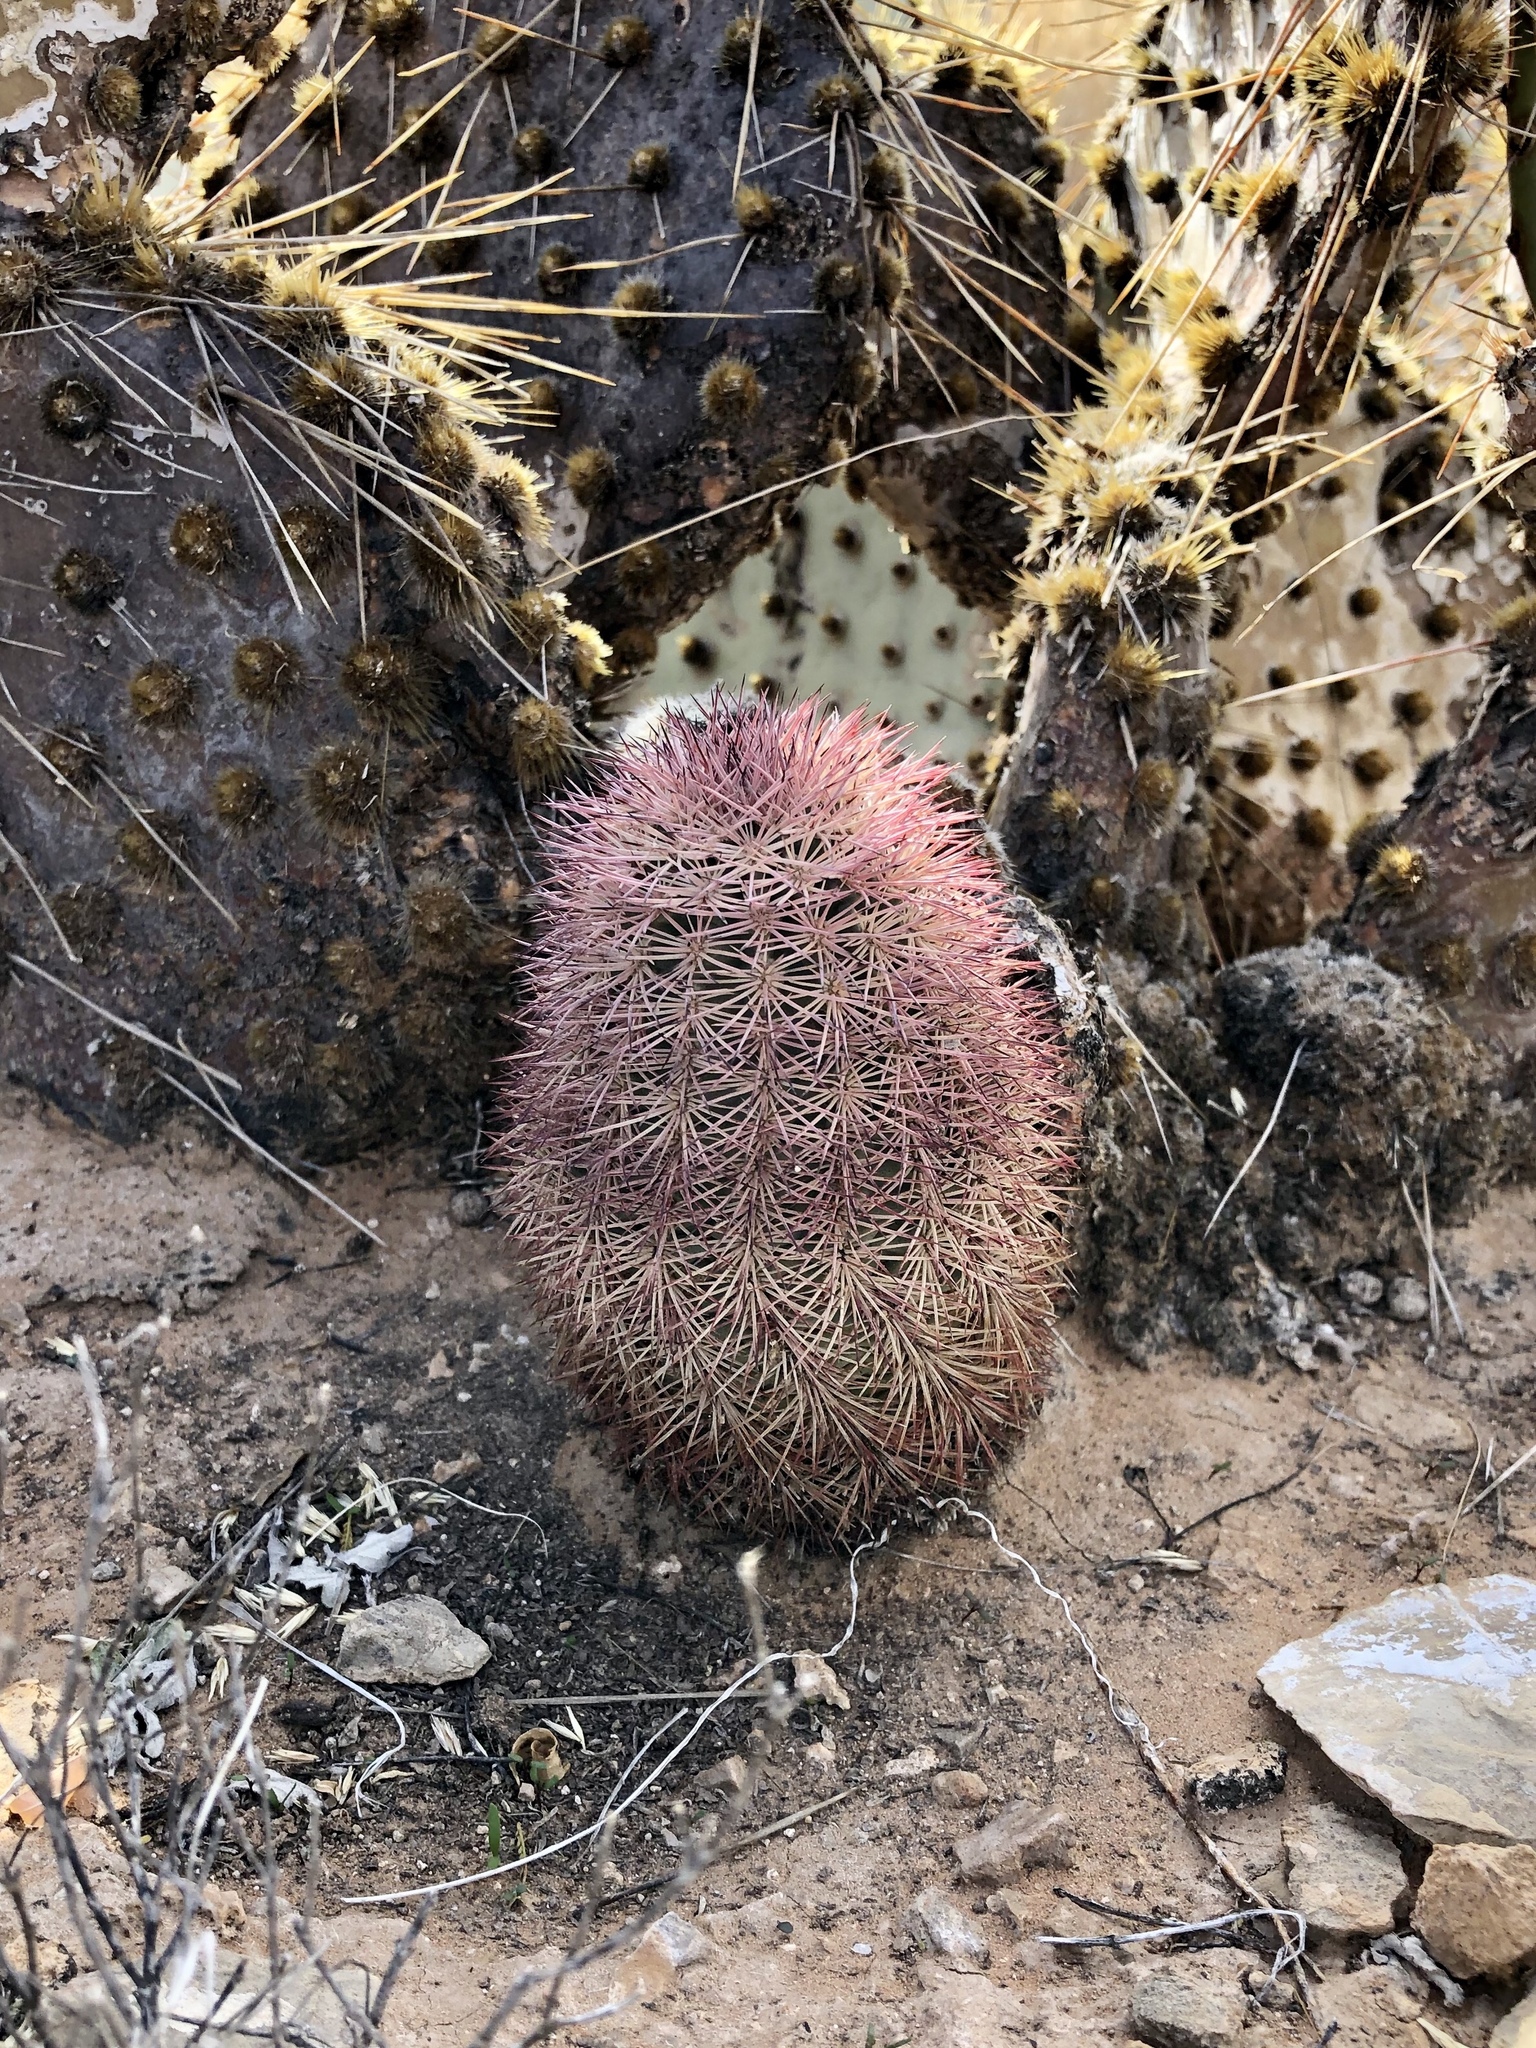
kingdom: Plantae
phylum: Tracheophyta
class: Magnoliopsida
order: Caryophyllales
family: Cactaceae
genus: Echinocereus
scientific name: Echinocereus dasyacanthus
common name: Spiny hedgehog cactus
